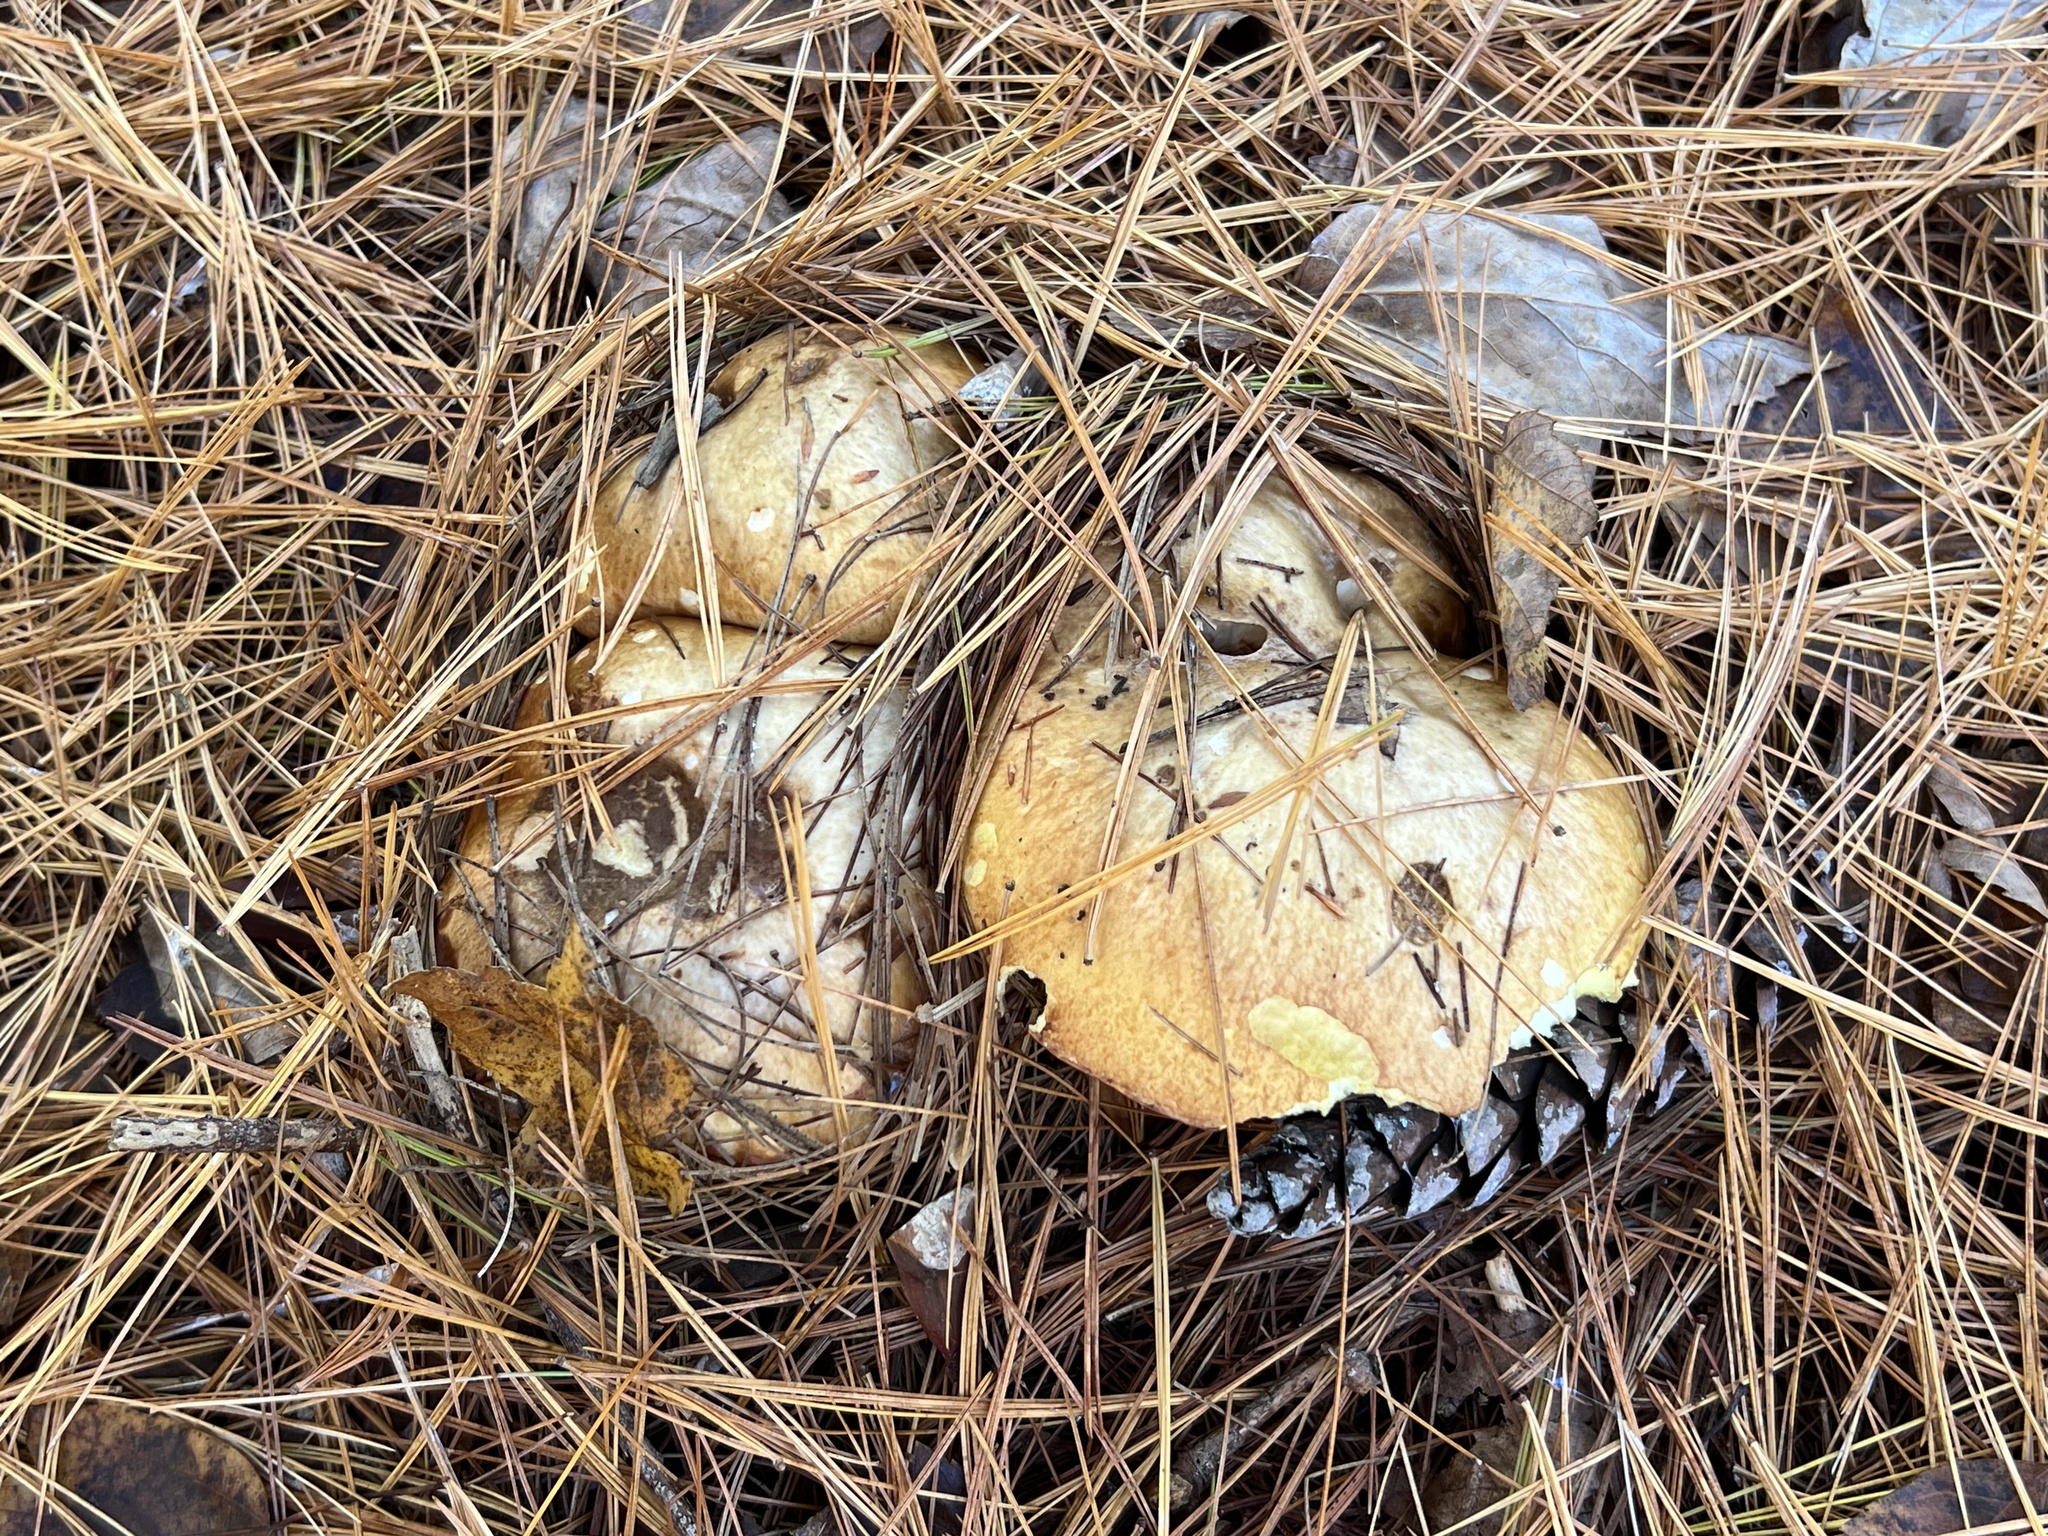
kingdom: Fungi
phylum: Basidiomycota
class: Agaricomycetes
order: Boletales
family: Suillaceae
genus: Fuscoboletinus
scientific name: Fuscoboletinus weaverae
